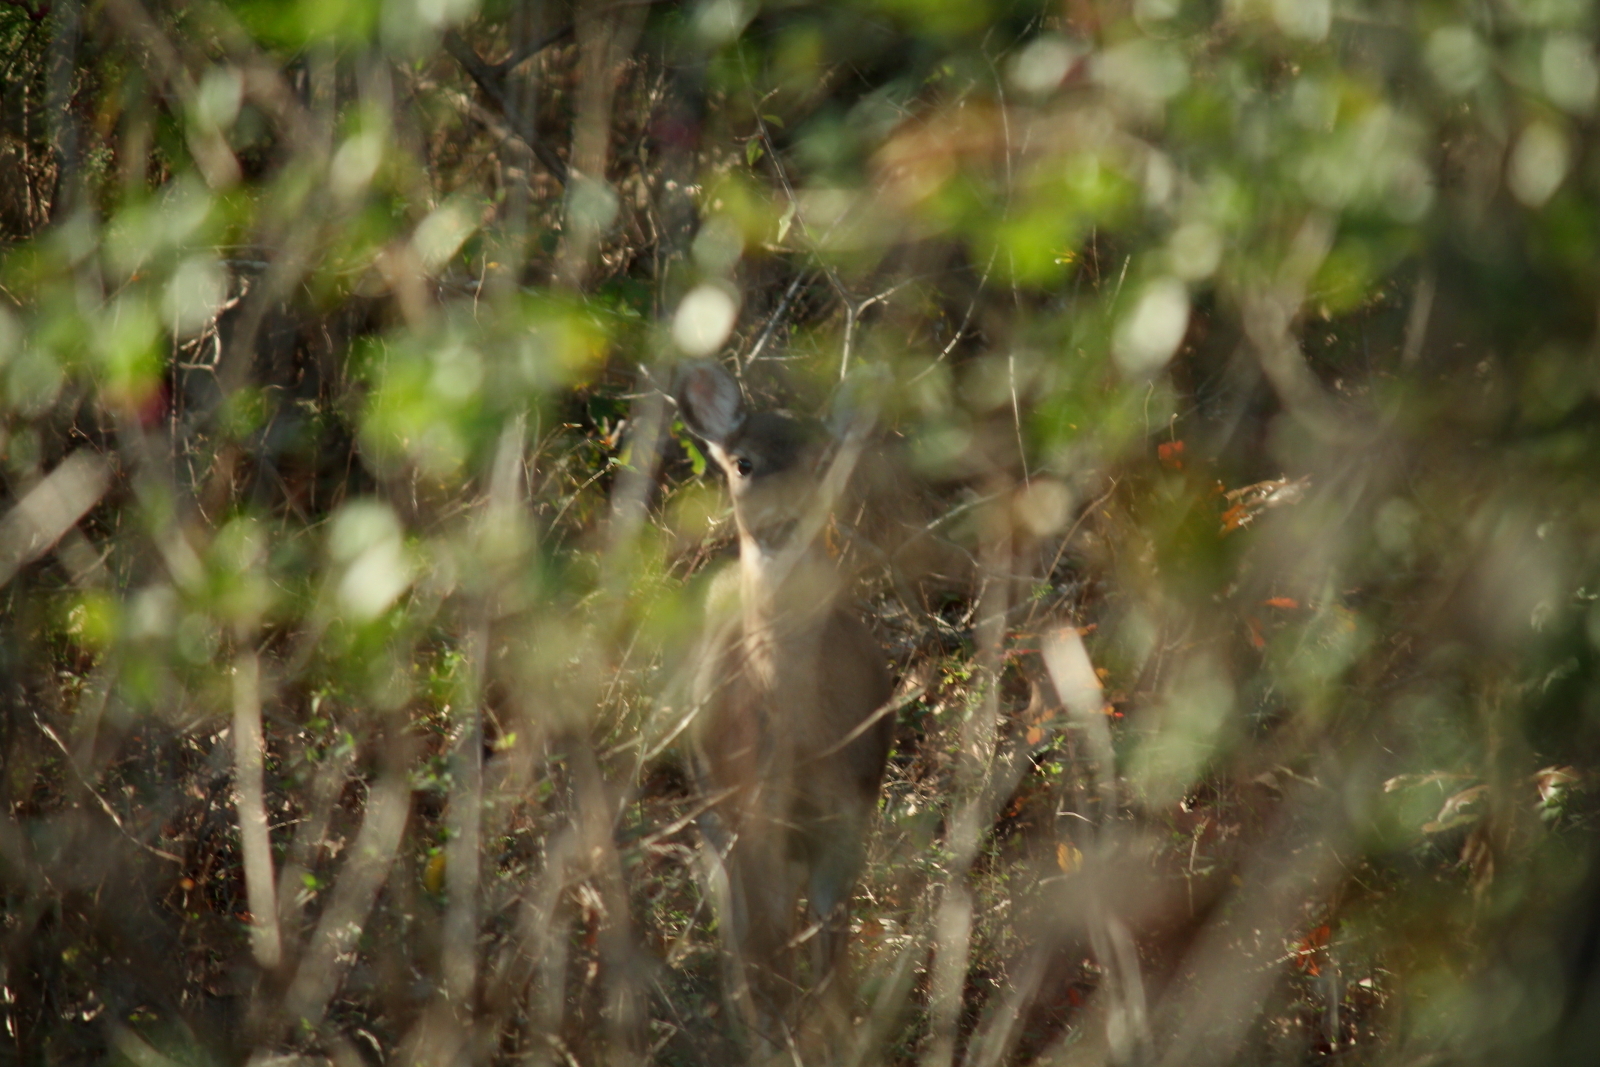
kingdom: Animalia
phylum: Chordata
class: Mammalia
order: Artiodactyla
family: Cervidae
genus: Odocoileus
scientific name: Odocoileus virginianus
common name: White-tailed deer
